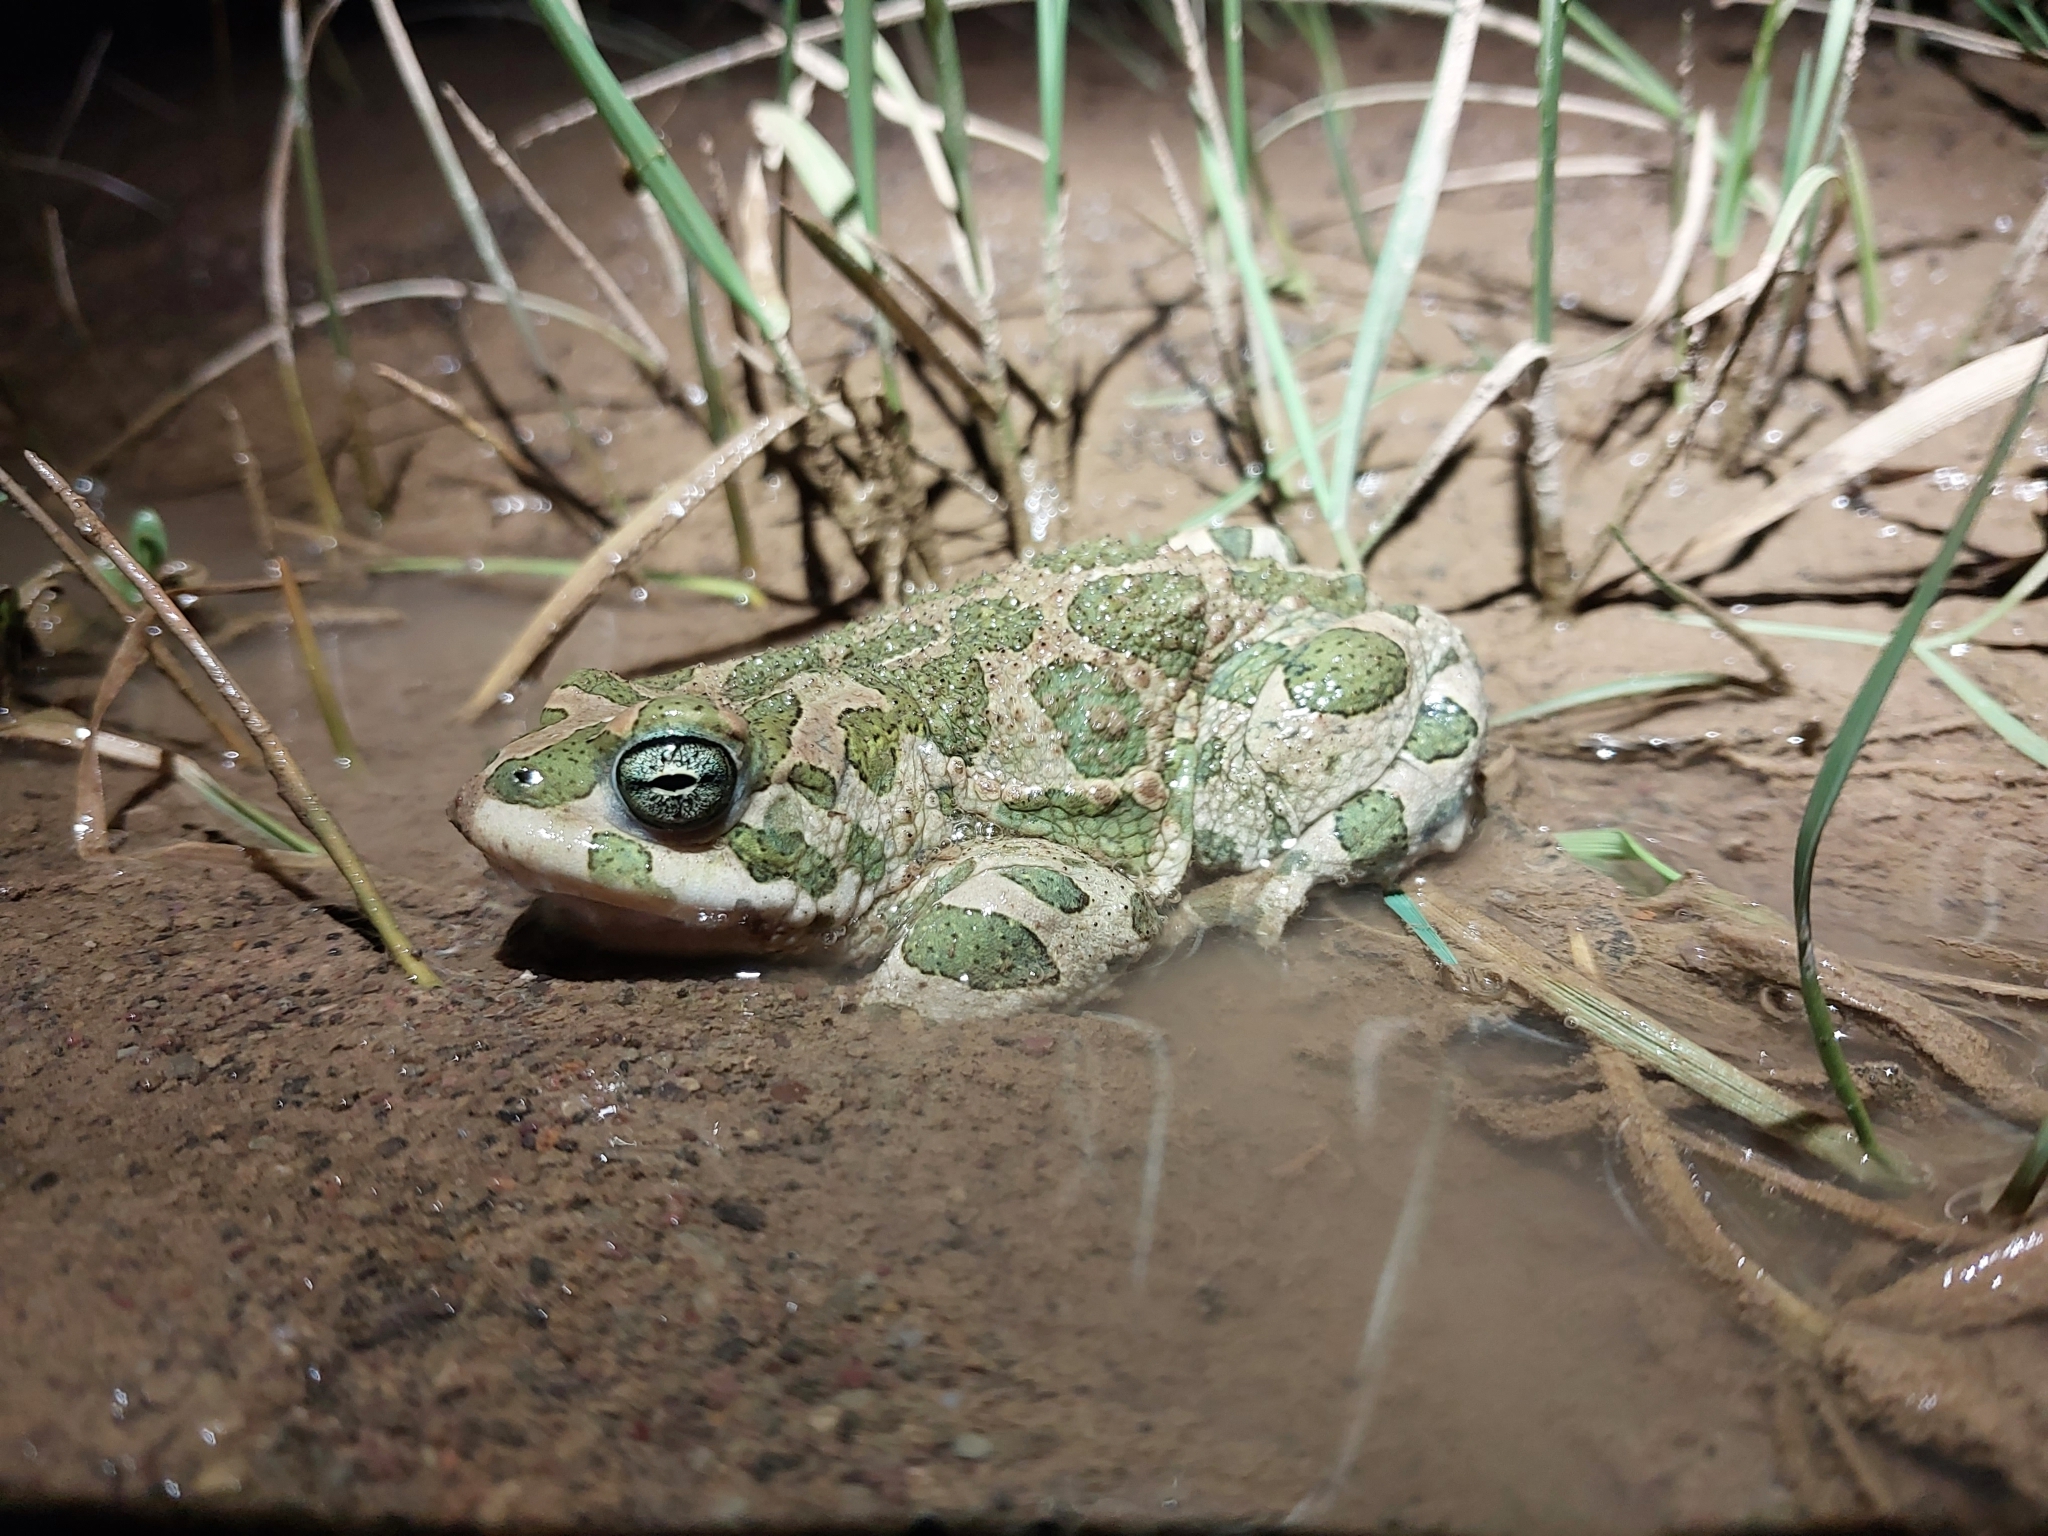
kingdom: Animalia
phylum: Chordata
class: Amphibia
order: Anura
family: Bufonidae
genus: Bufotes
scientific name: Bufotes boulengeri
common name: African green toad
